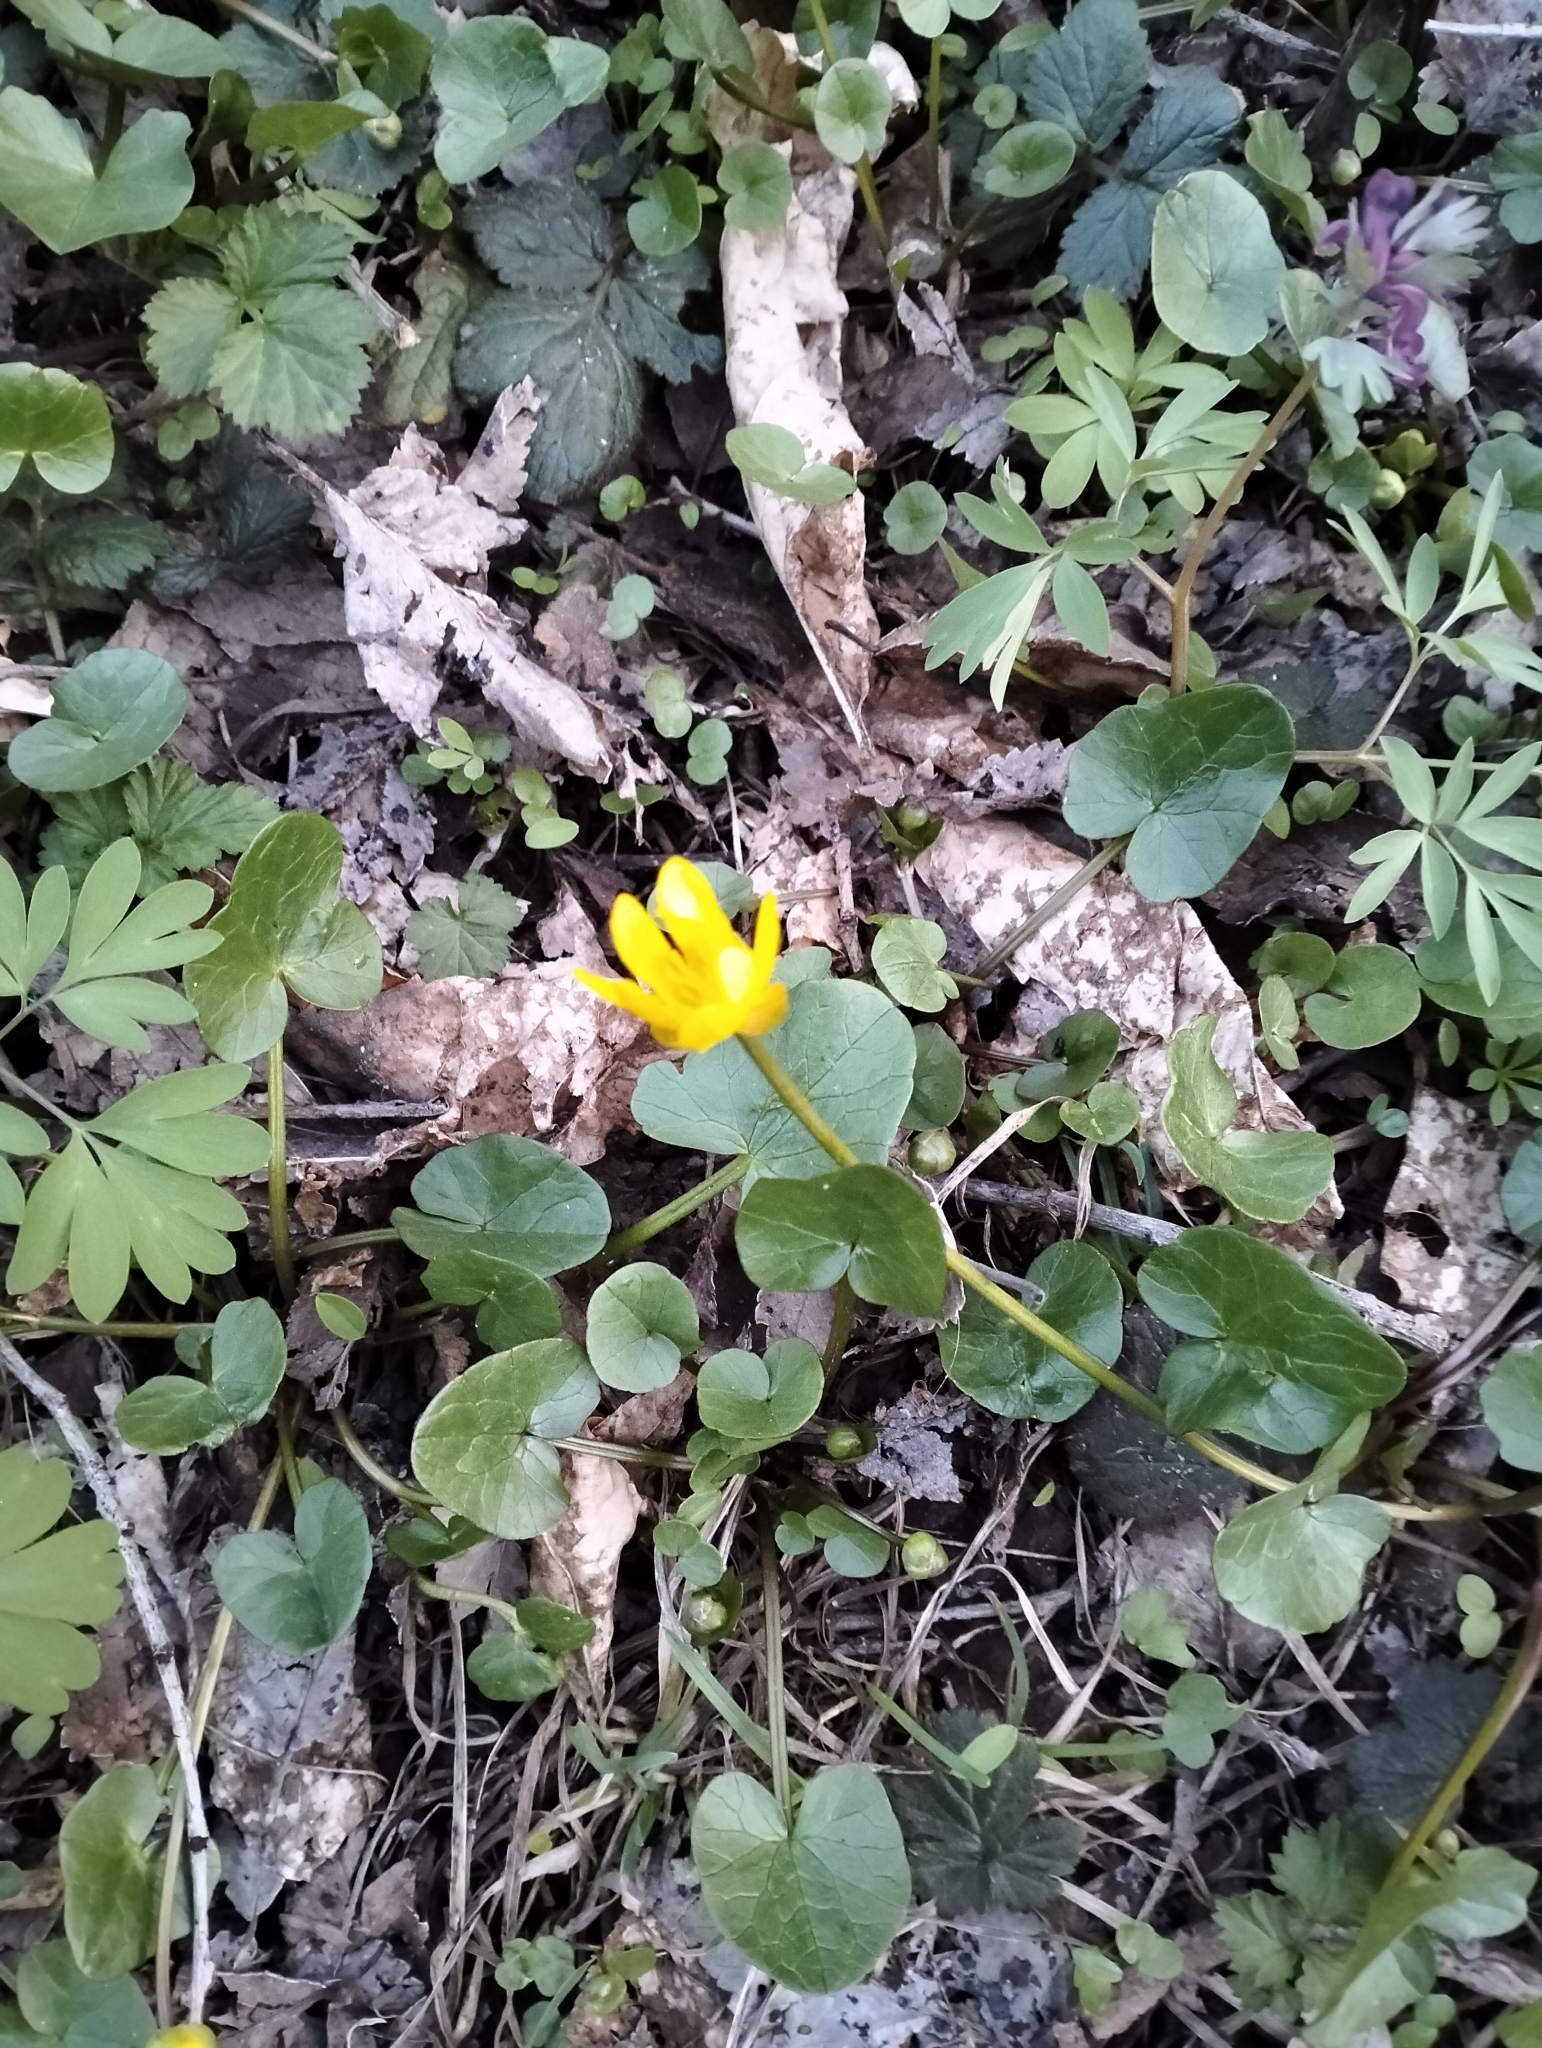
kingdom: Plantae
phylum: Tracheophyta
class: Magnoliopsida
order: Ranunculales
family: Ranunculaceae
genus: Ficaria
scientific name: Ficaria verna
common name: Lesser celandine
